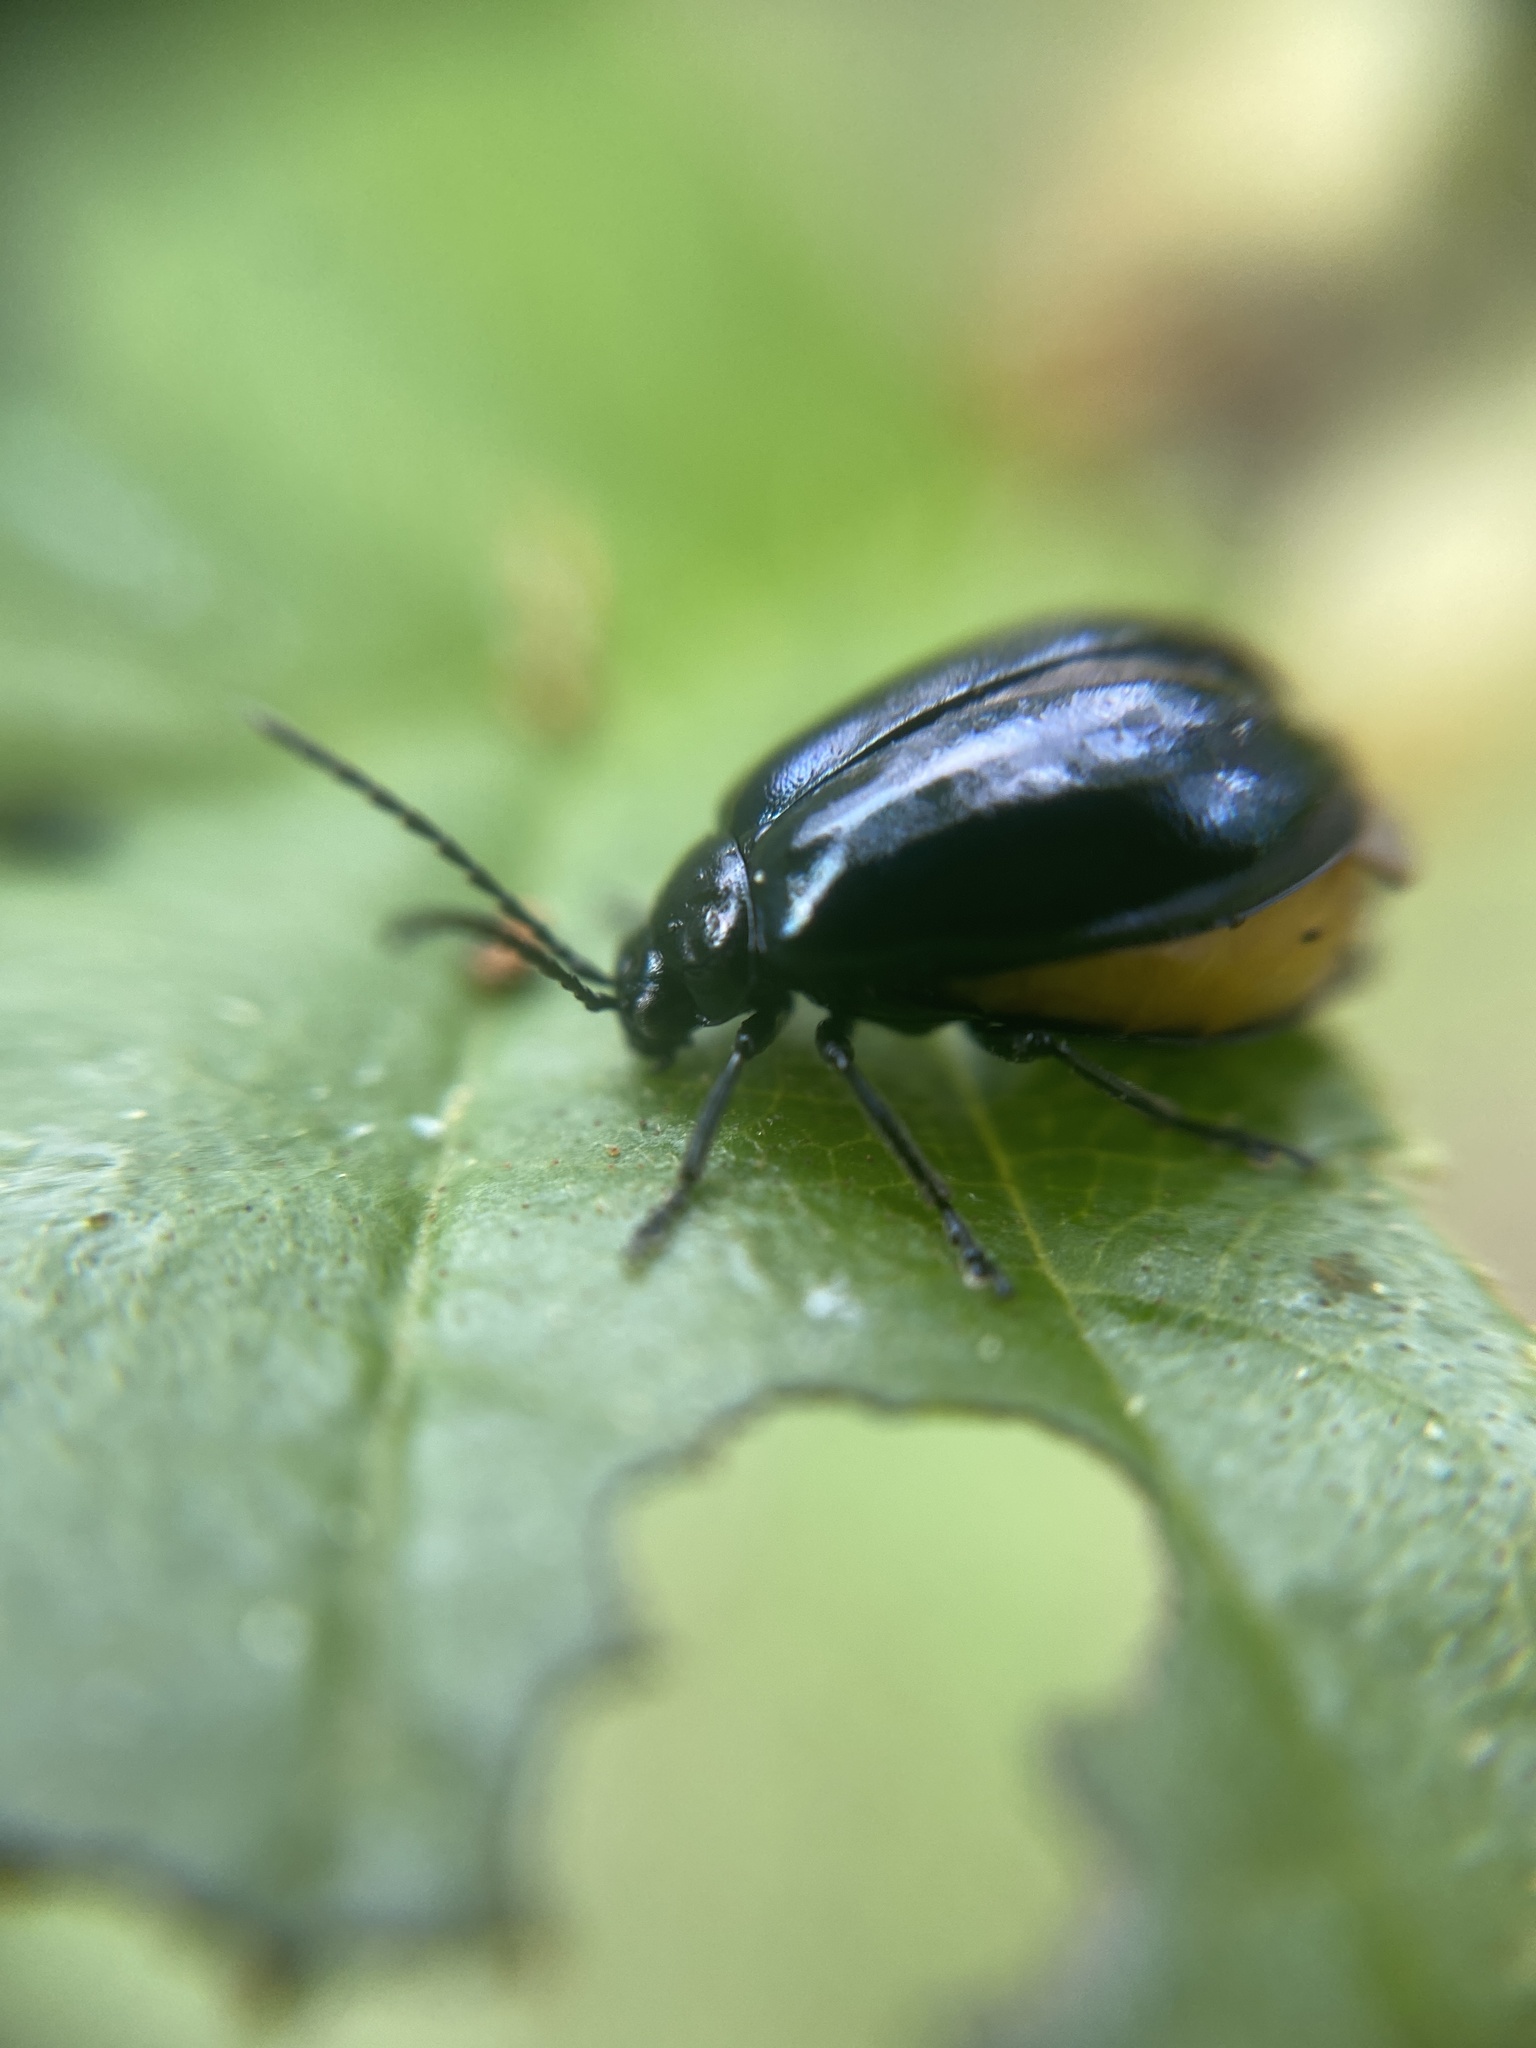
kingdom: Animalia
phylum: Arthropoda
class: Insecta
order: Coleoptera
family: Chrysomelidae
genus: Agelastica
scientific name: Agelastica alni
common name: Alder leaf beetle
